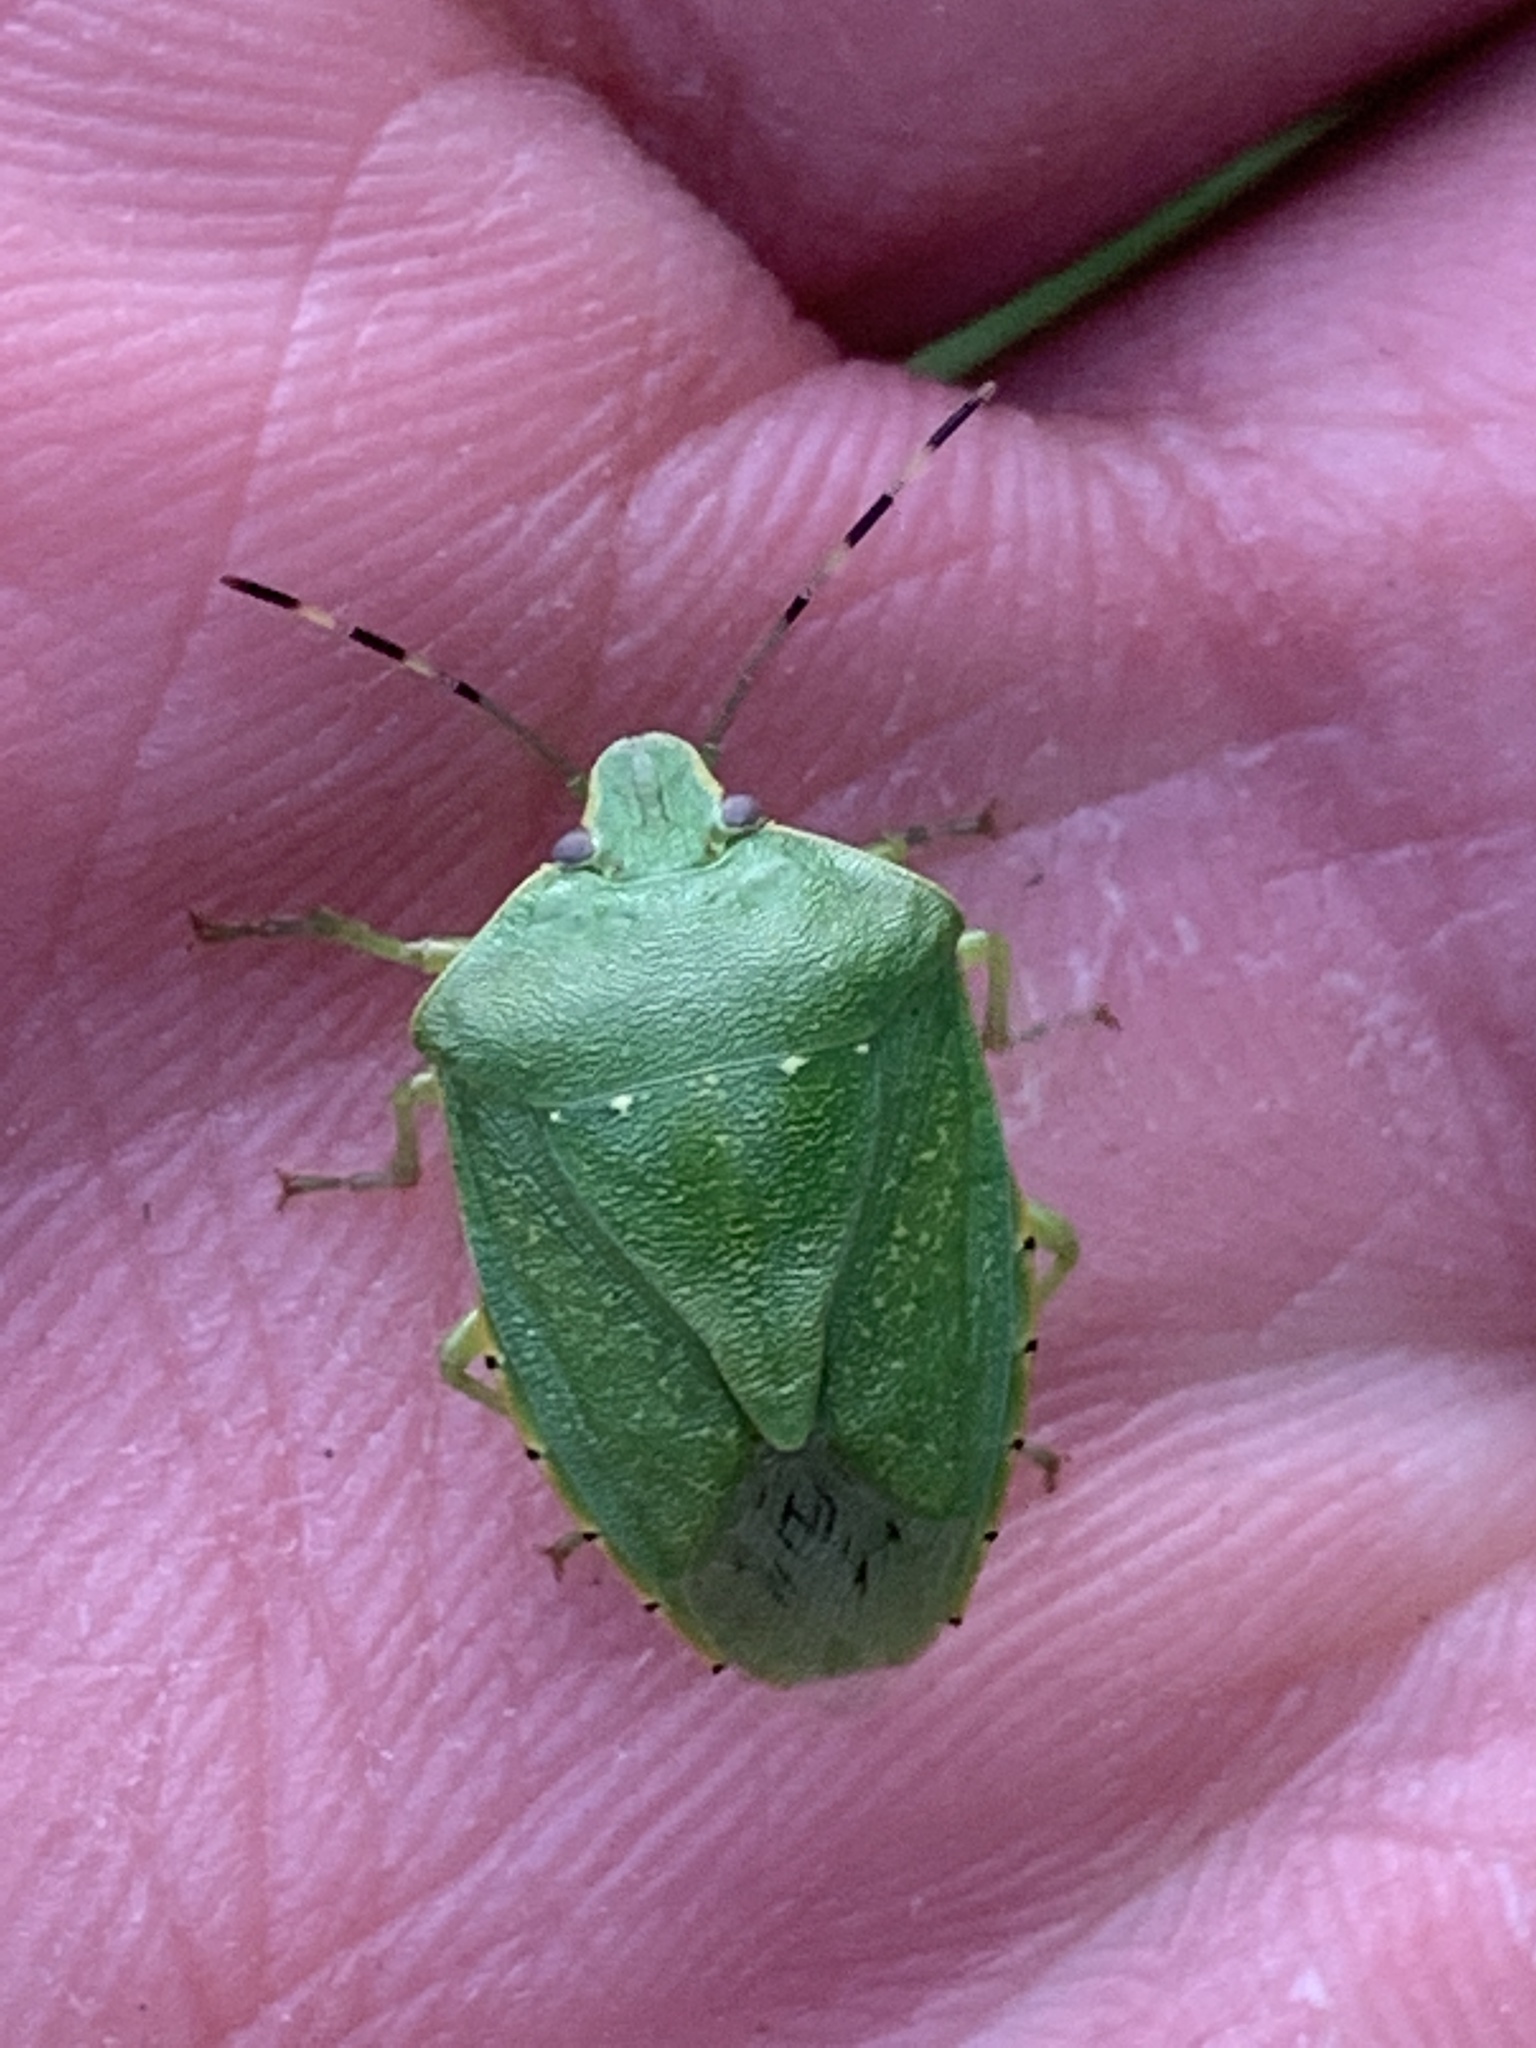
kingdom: Animalia
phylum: Arthropoda
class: Insecta
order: Hemiptera
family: Pentatomidae
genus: Chinavia
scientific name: Chinavia hilaris
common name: Green stink bug
